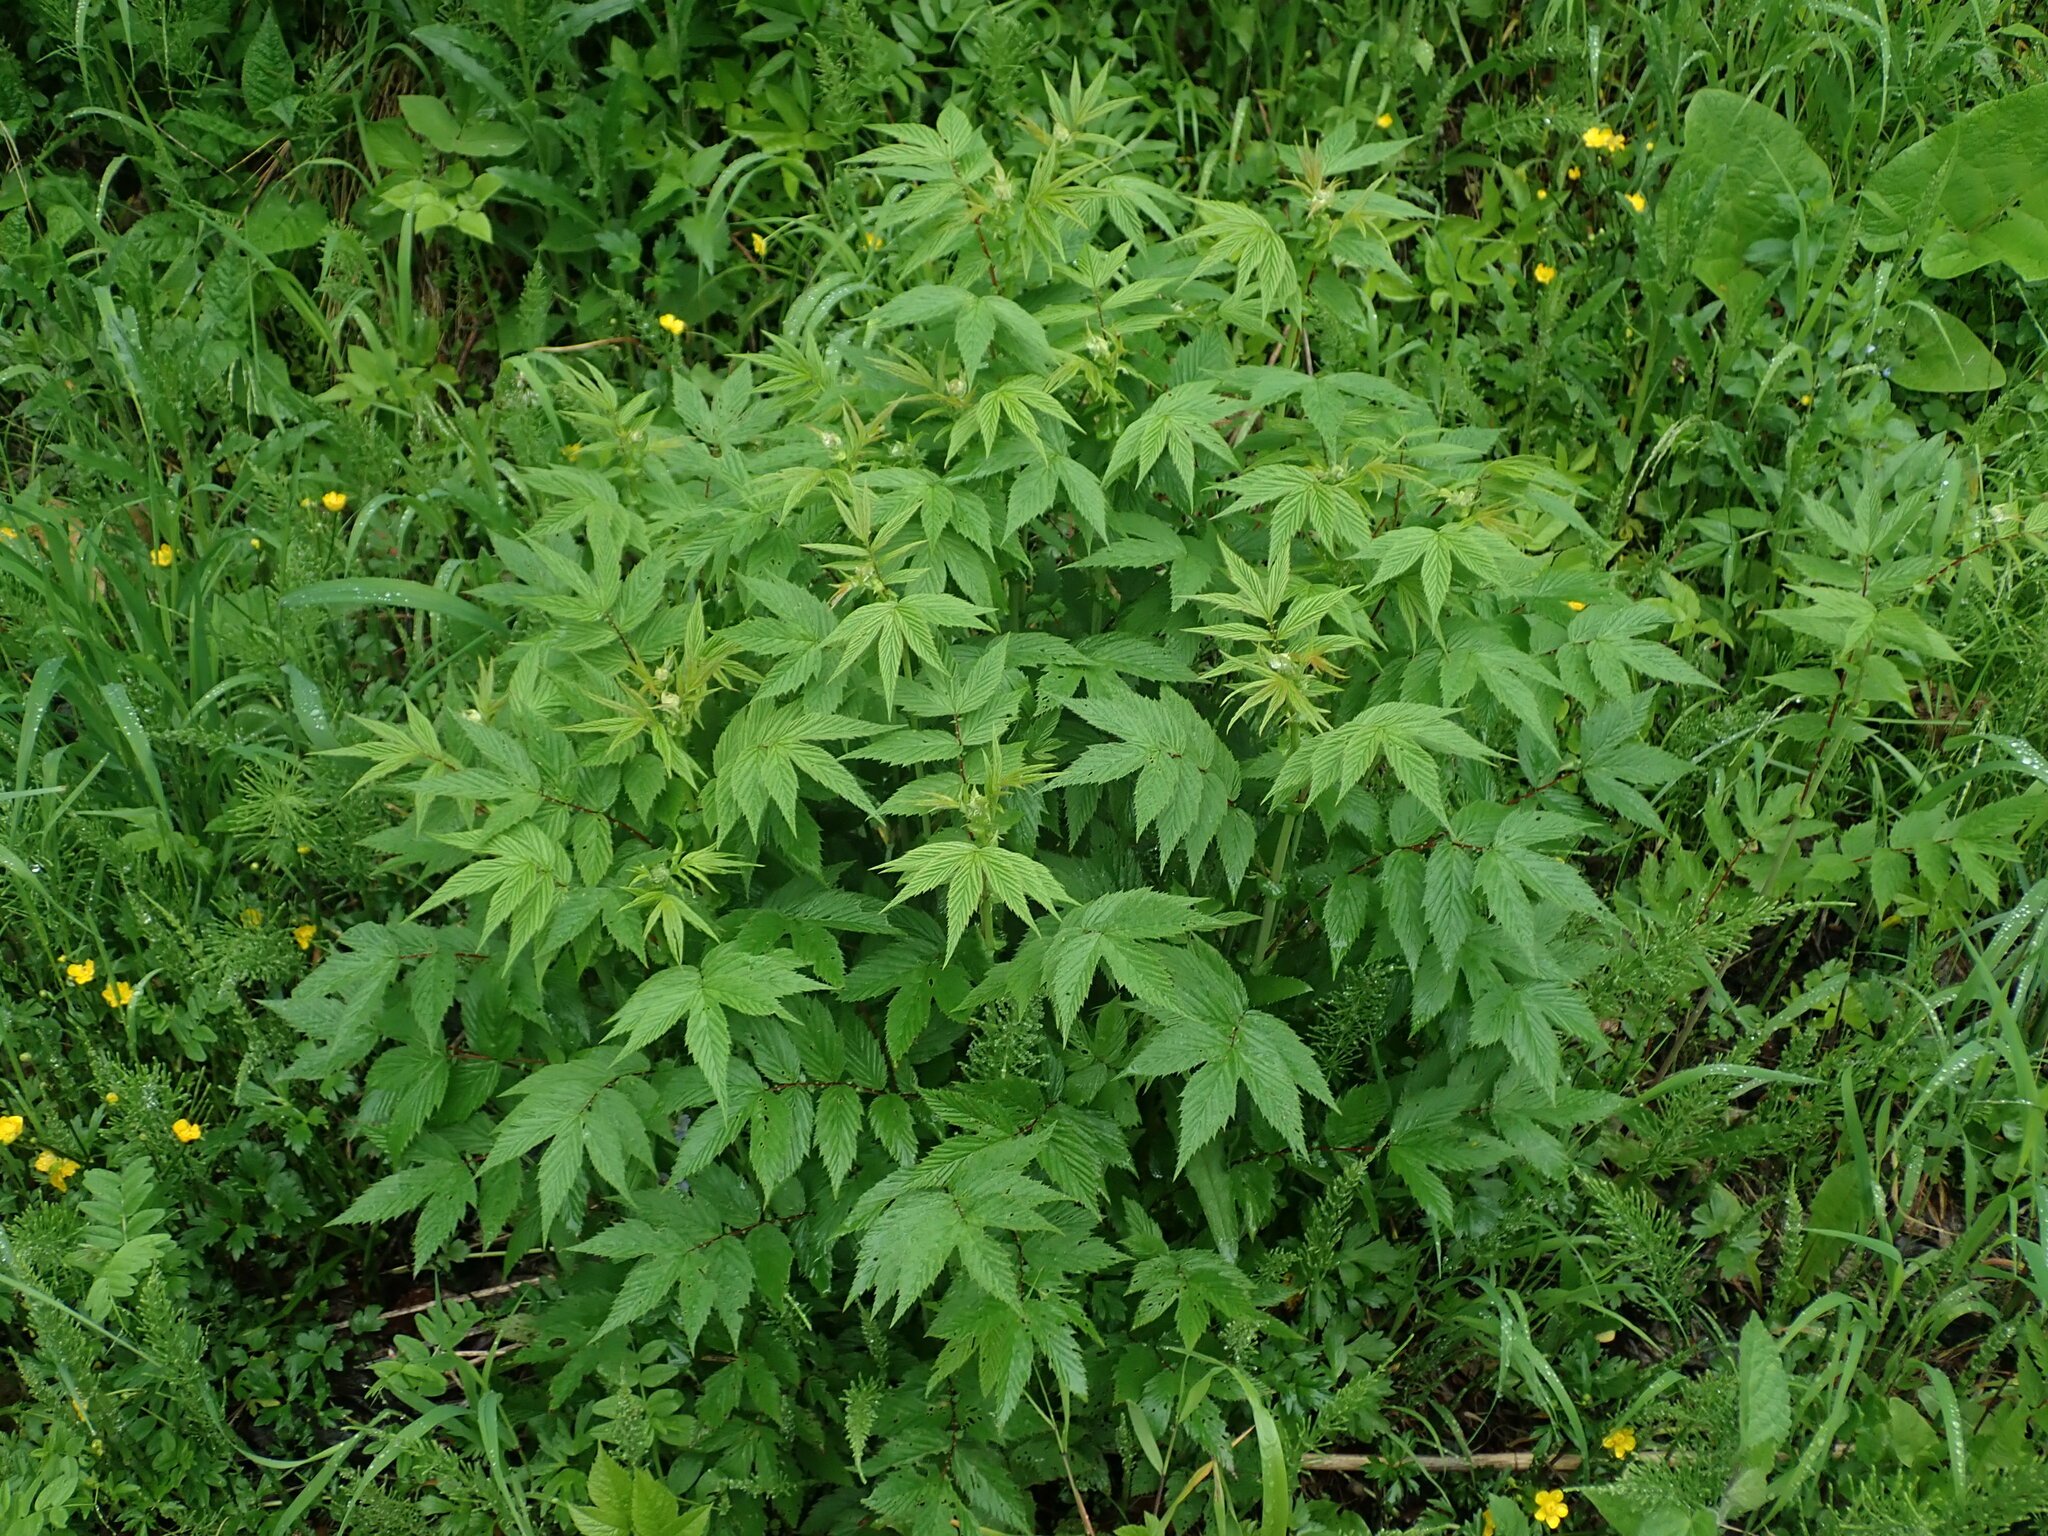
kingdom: Plantae
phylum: Tracheophyta
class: Magnoliopsida
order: Rosales
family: Rosaceae
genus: Filipendula
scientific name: Filipendula ulmaria
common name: Meadowsweet
